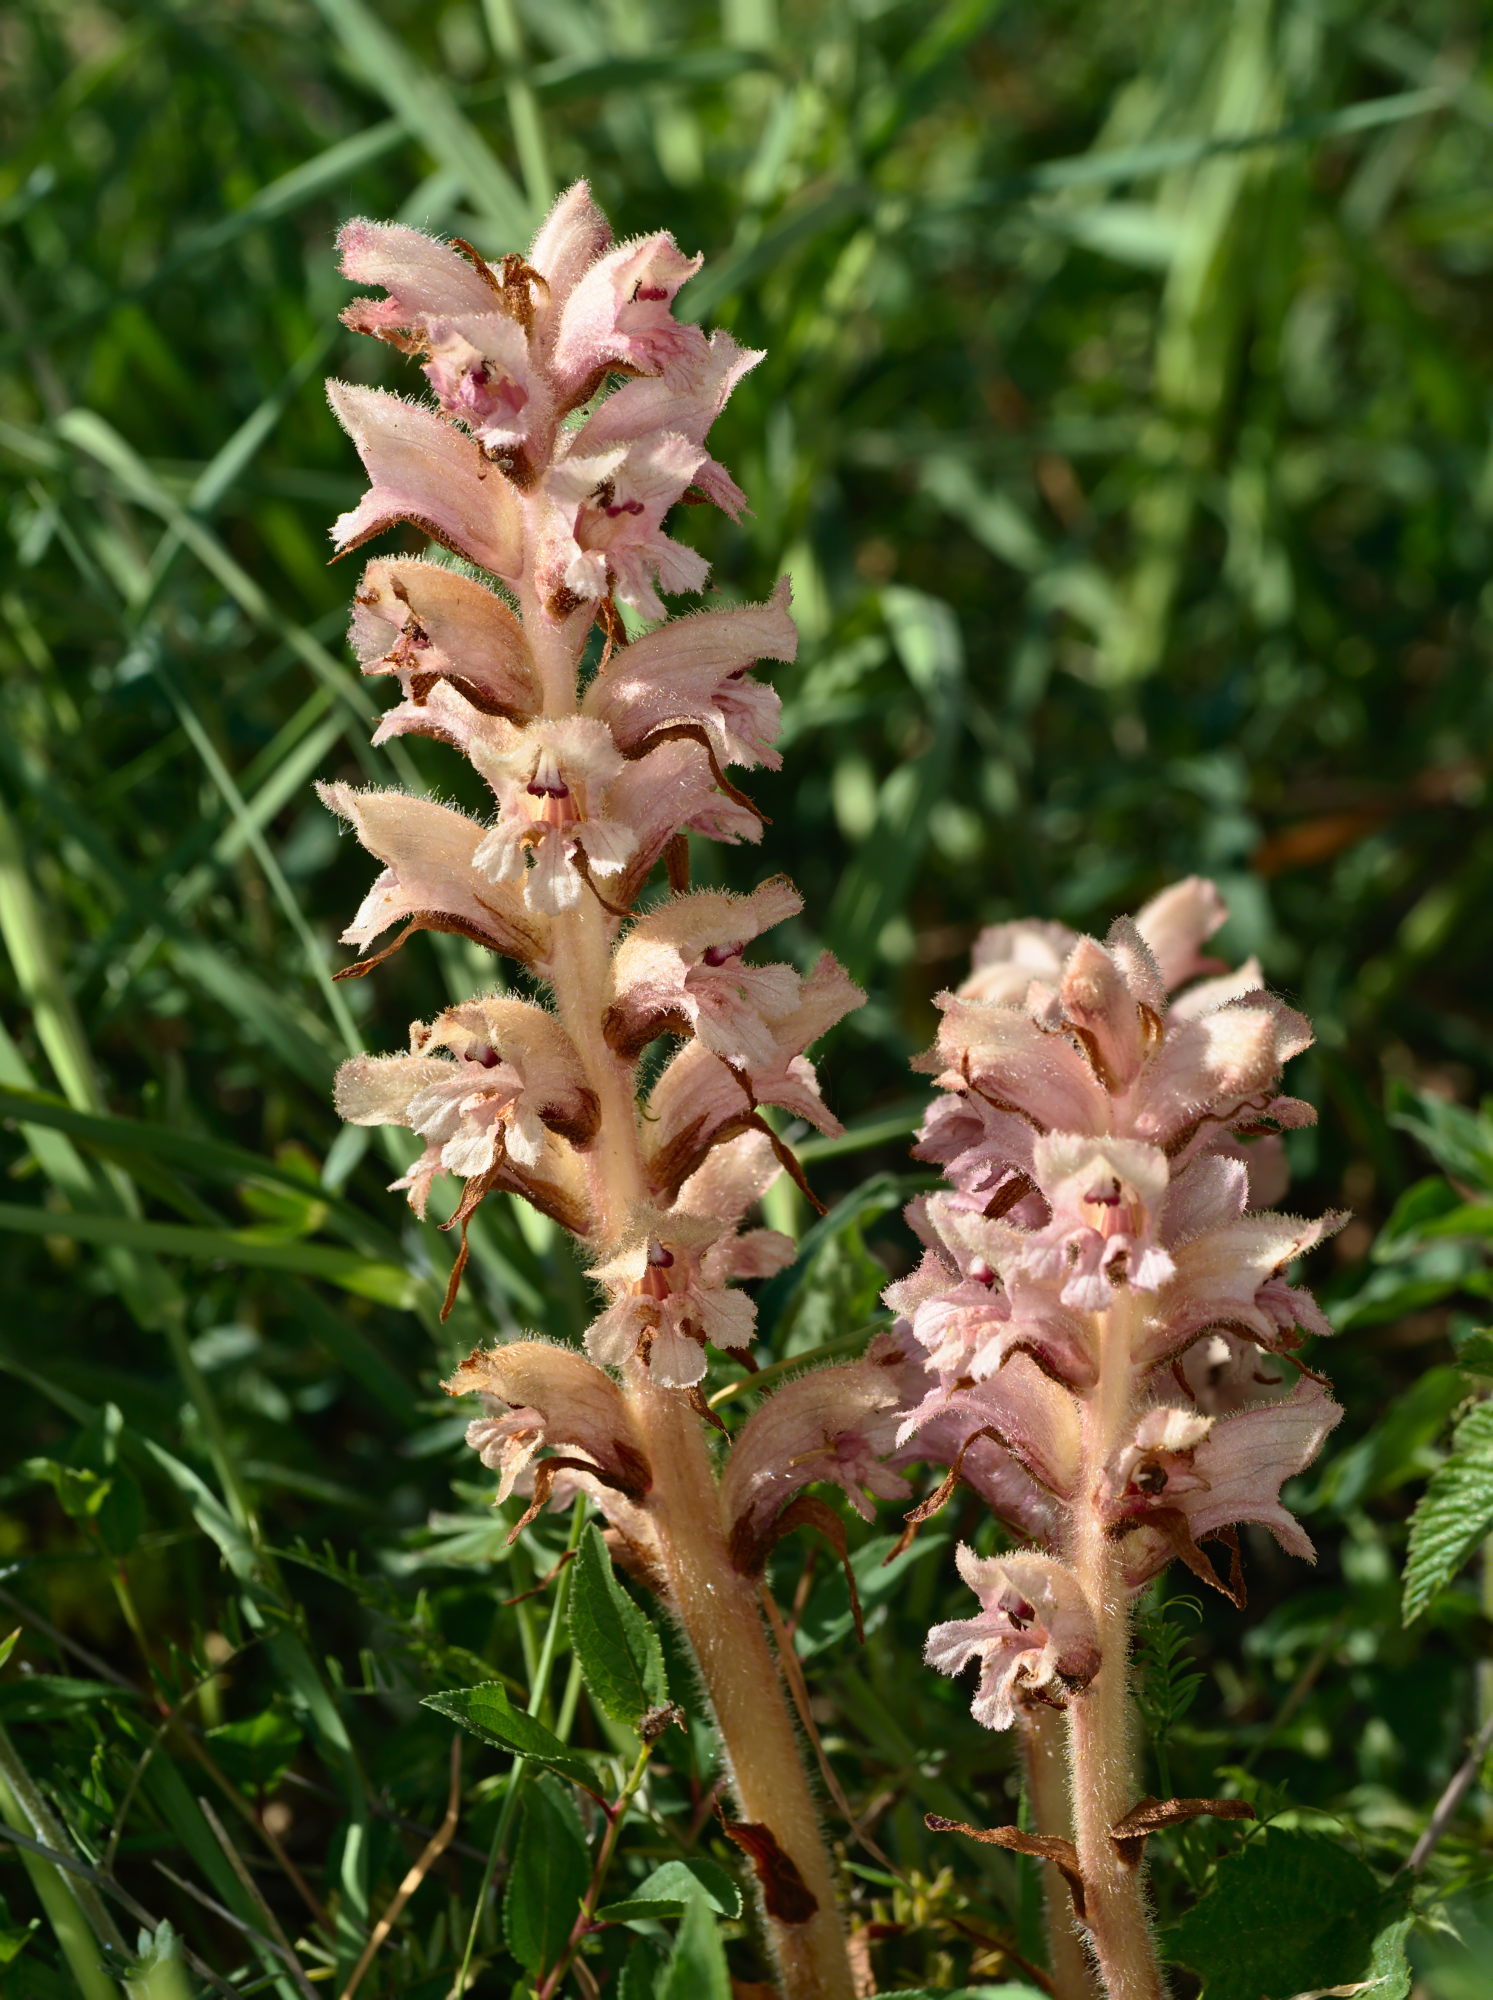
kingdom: Plantae
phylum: Tracheophyta
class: Magnoliopsida
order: Lamiales
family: Orobanchaceae
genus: Orobanche
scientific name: Orobanche caryophyllacea
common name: Bedstraw broomrape
